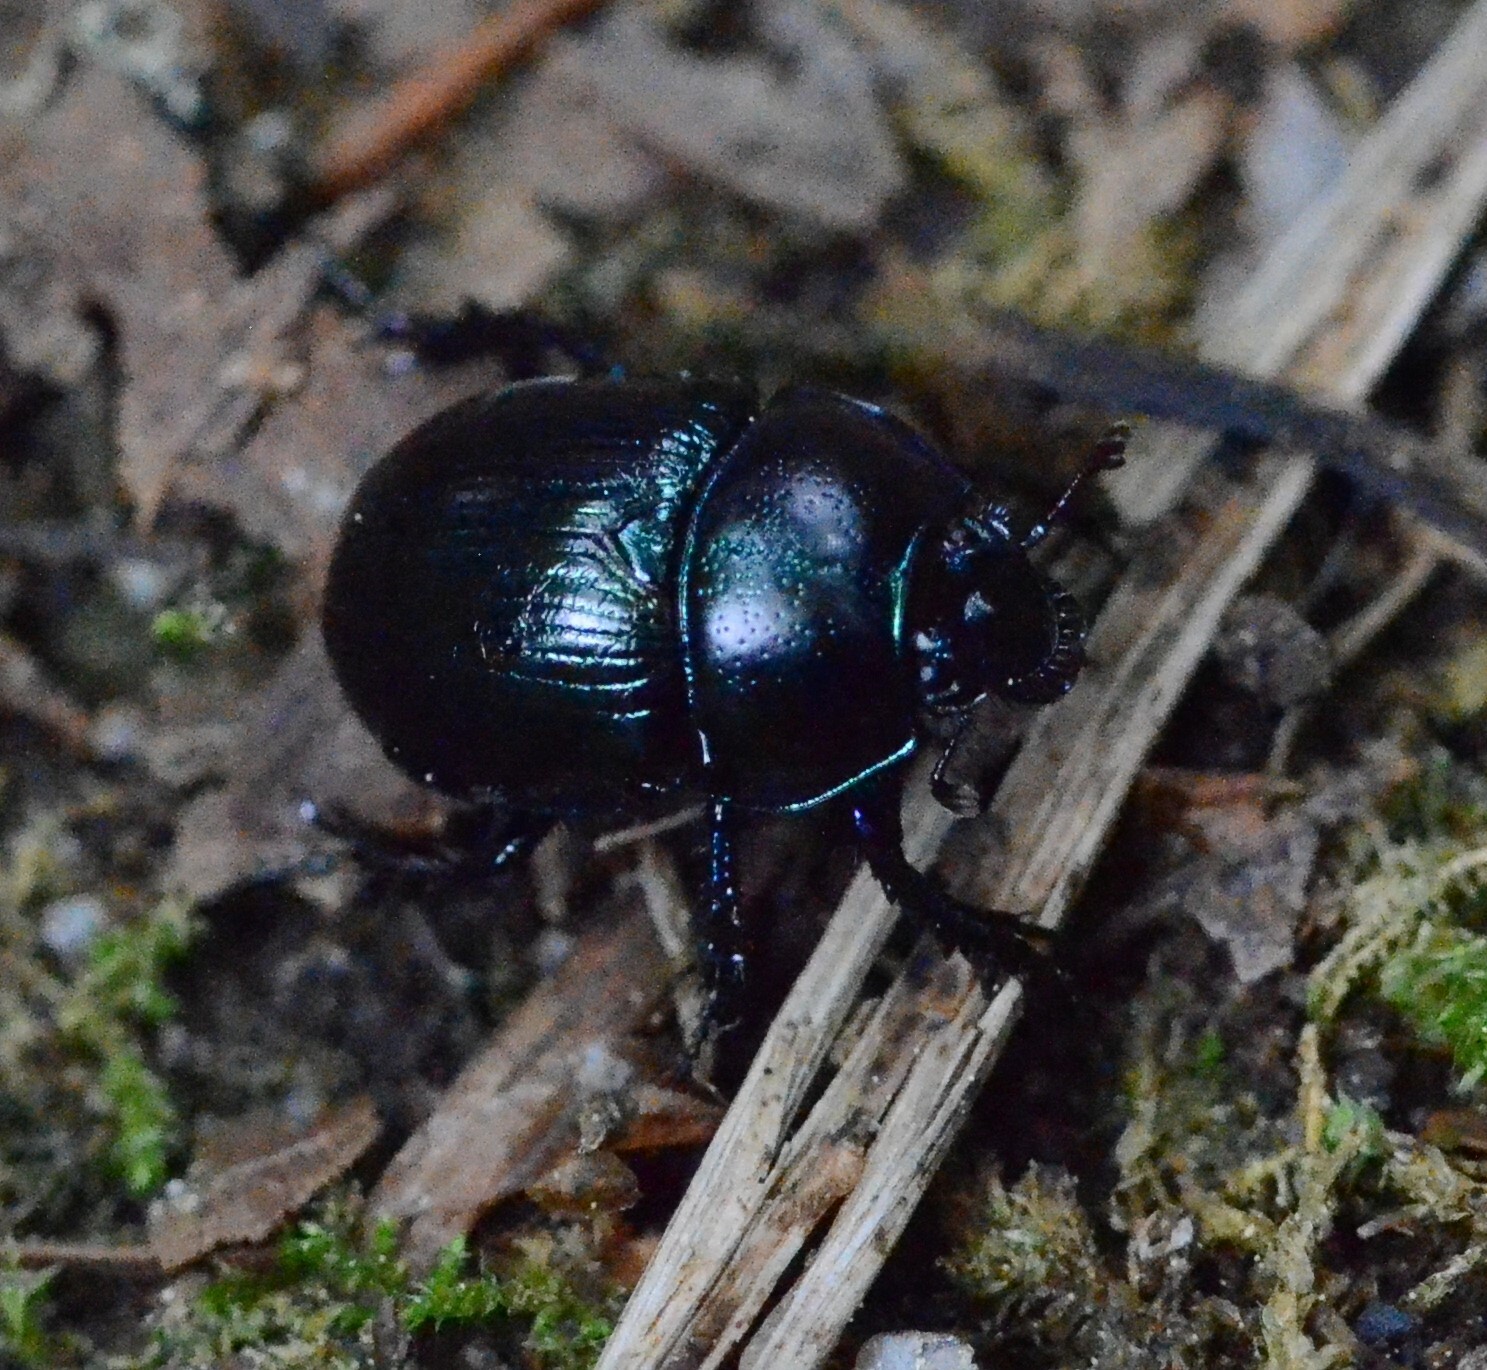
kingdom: Animalia
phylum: Arthropoda
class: Insecta
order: Coleoptera
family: Geotrupidae
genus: Anoplotrupes
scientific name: Anoplotrupes stercorosus
